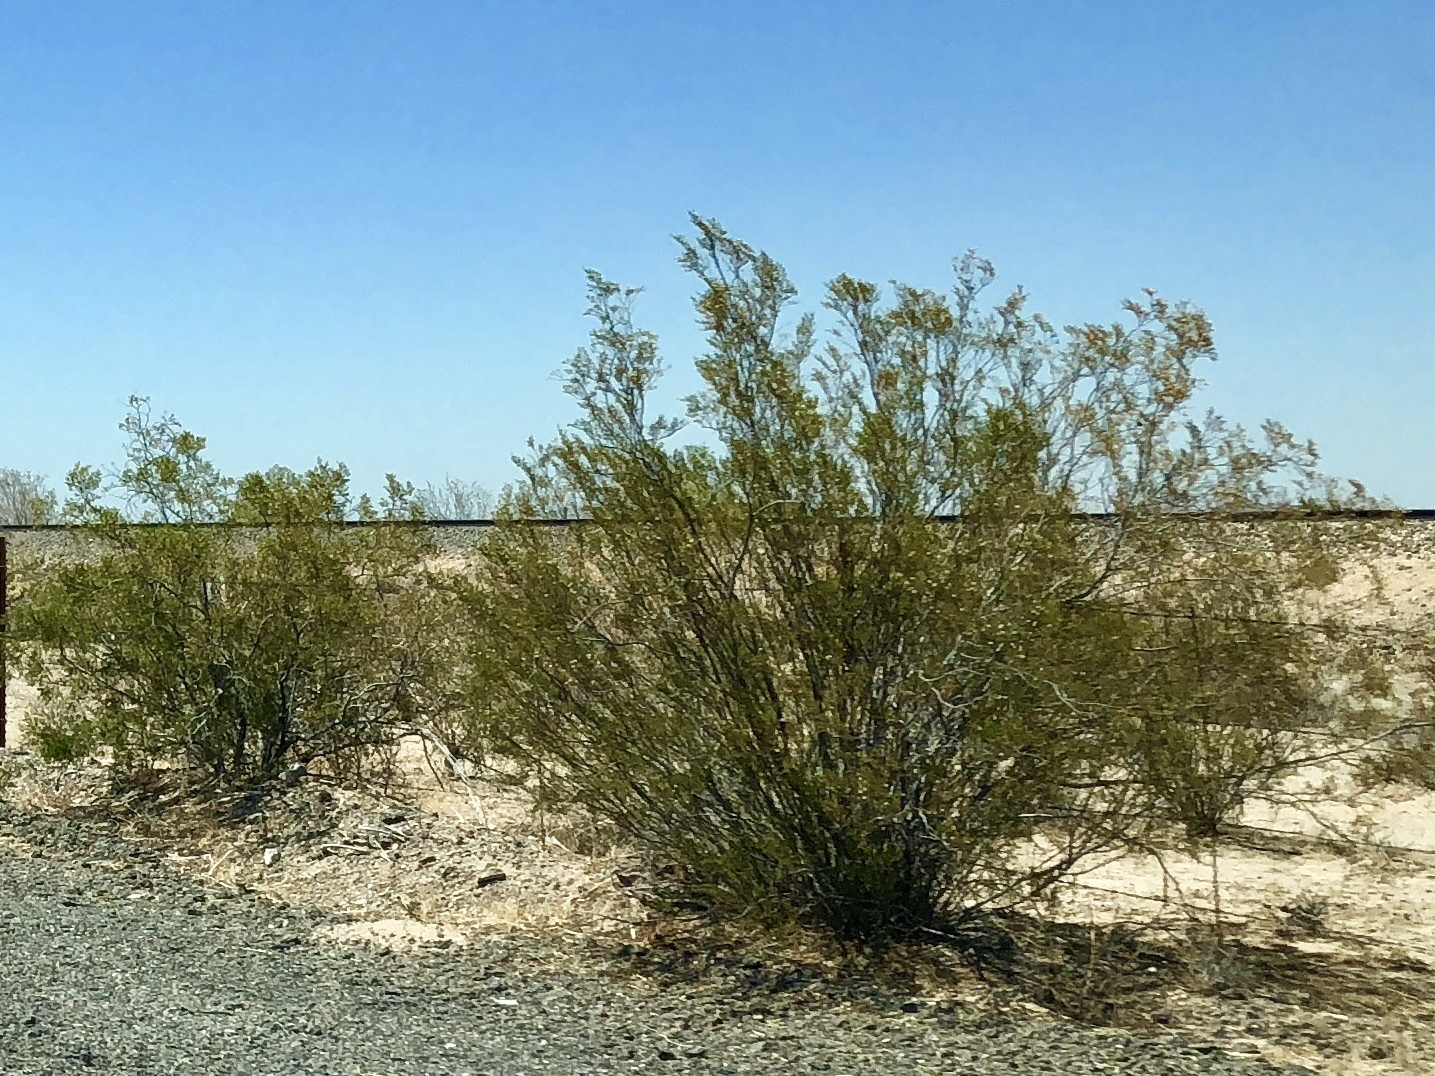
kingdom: Plantae
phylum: Tracheophyta
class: Magnoliopsida
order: Zygophyllales
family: Zygophyllaceae
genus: Larrea
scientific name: Larrea tridentata
